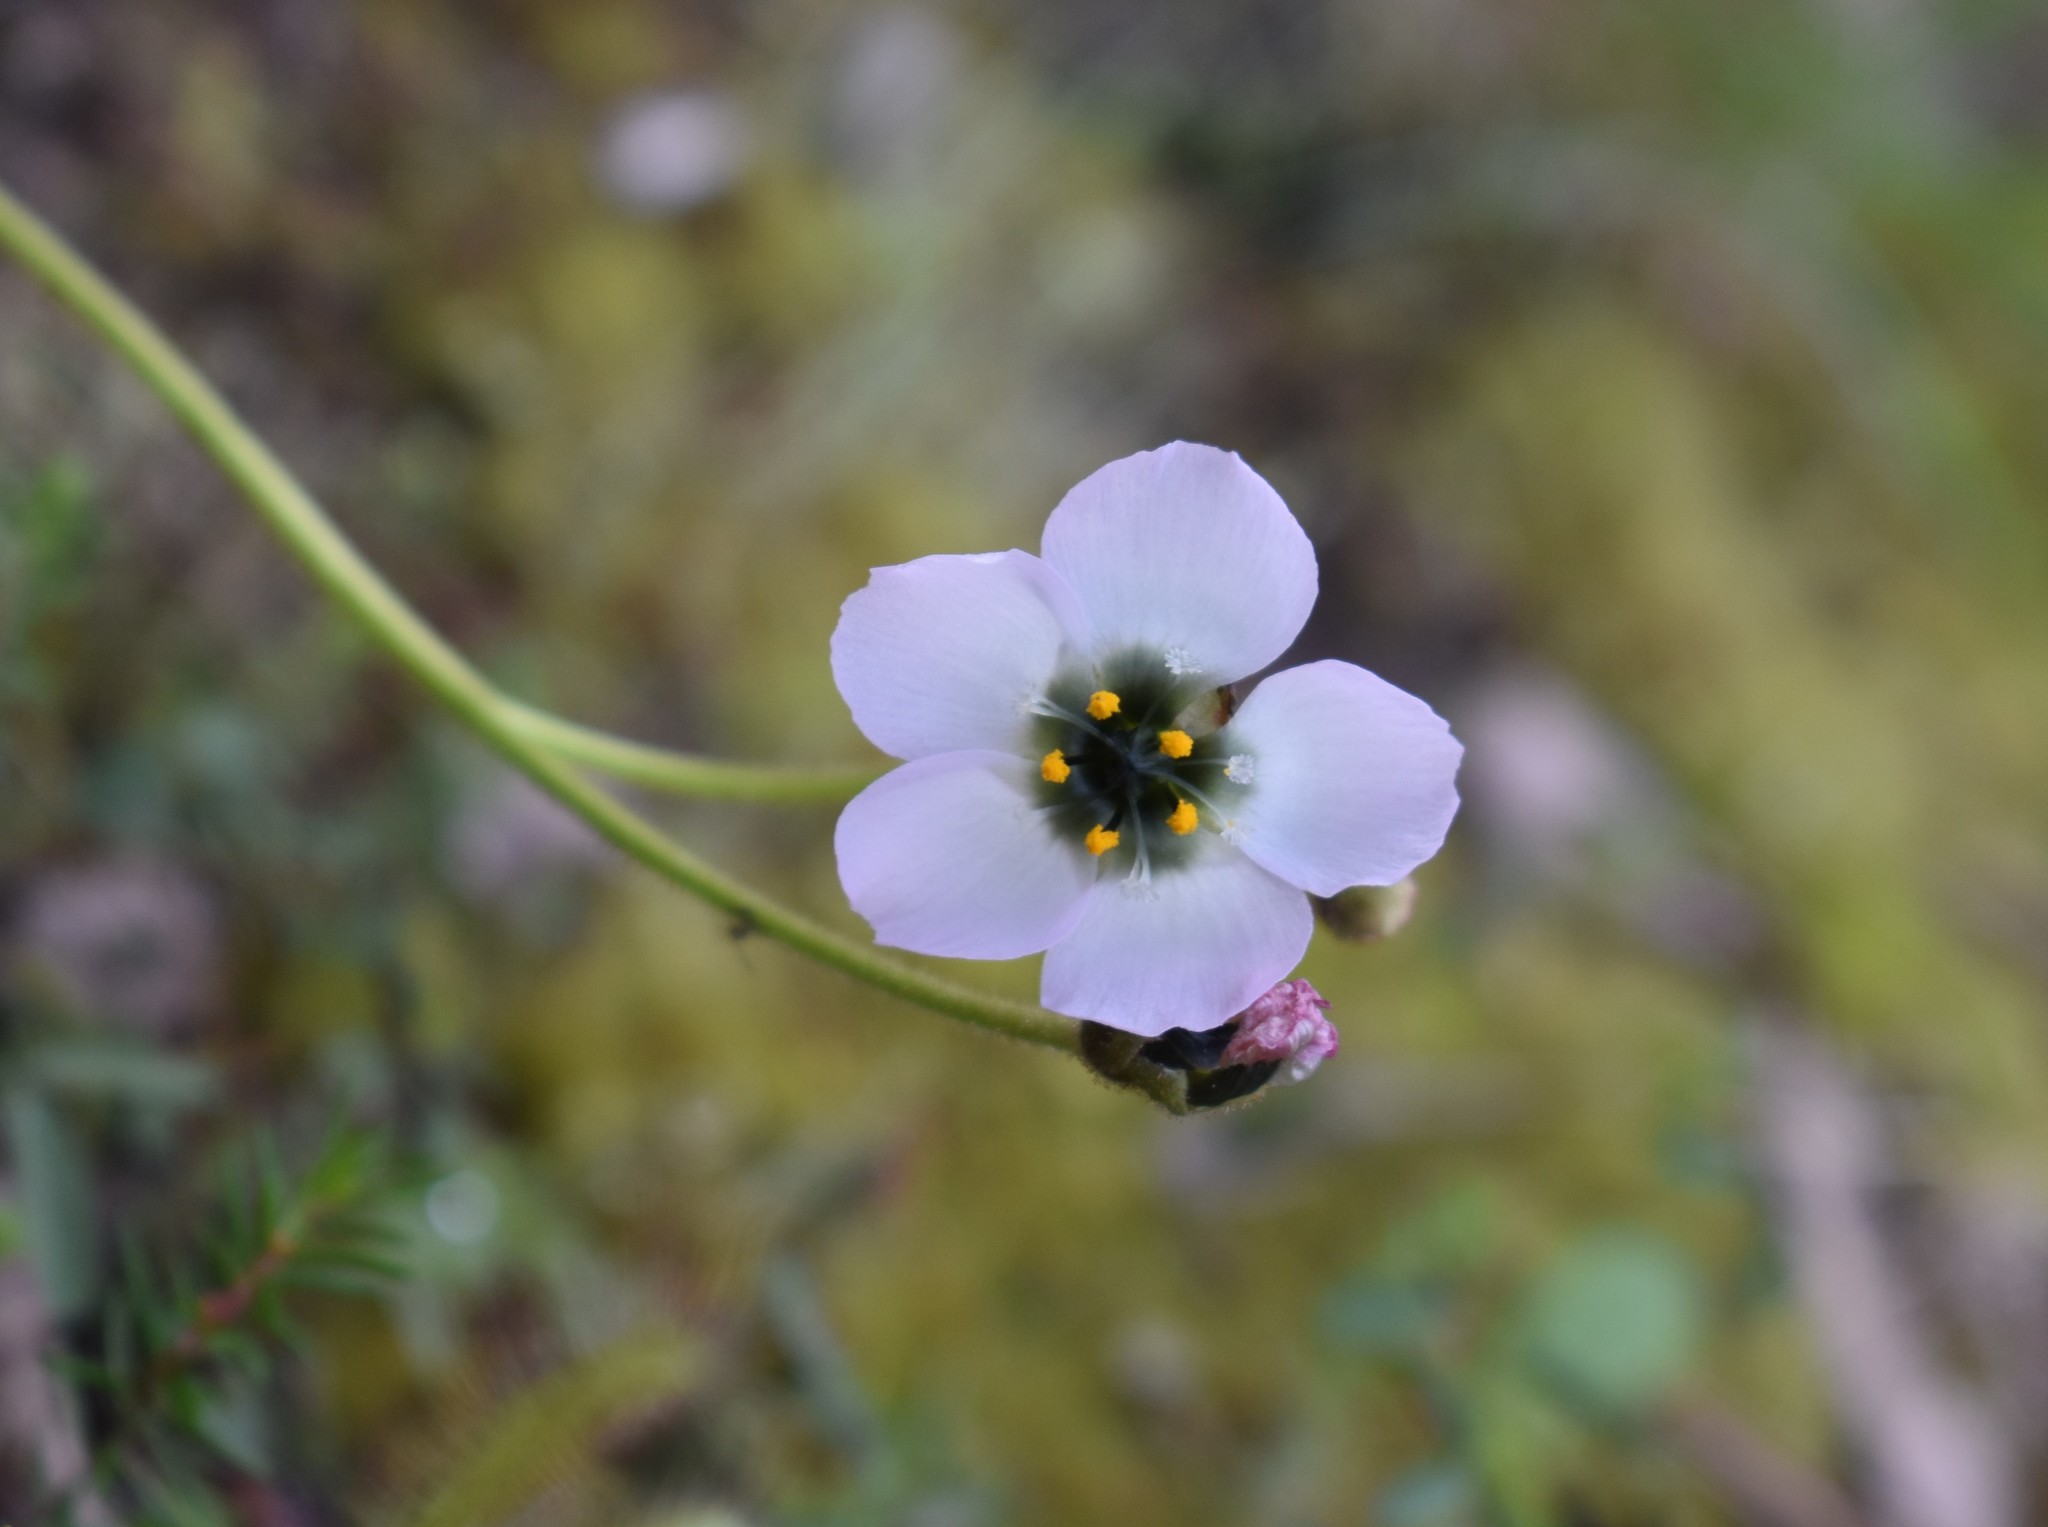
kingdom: Plantae
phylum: Tracheophyta
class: Magnoliopsida
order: Caryophyllales
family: Droseraceae
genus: Drosera
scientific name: Drosera cistiflora
